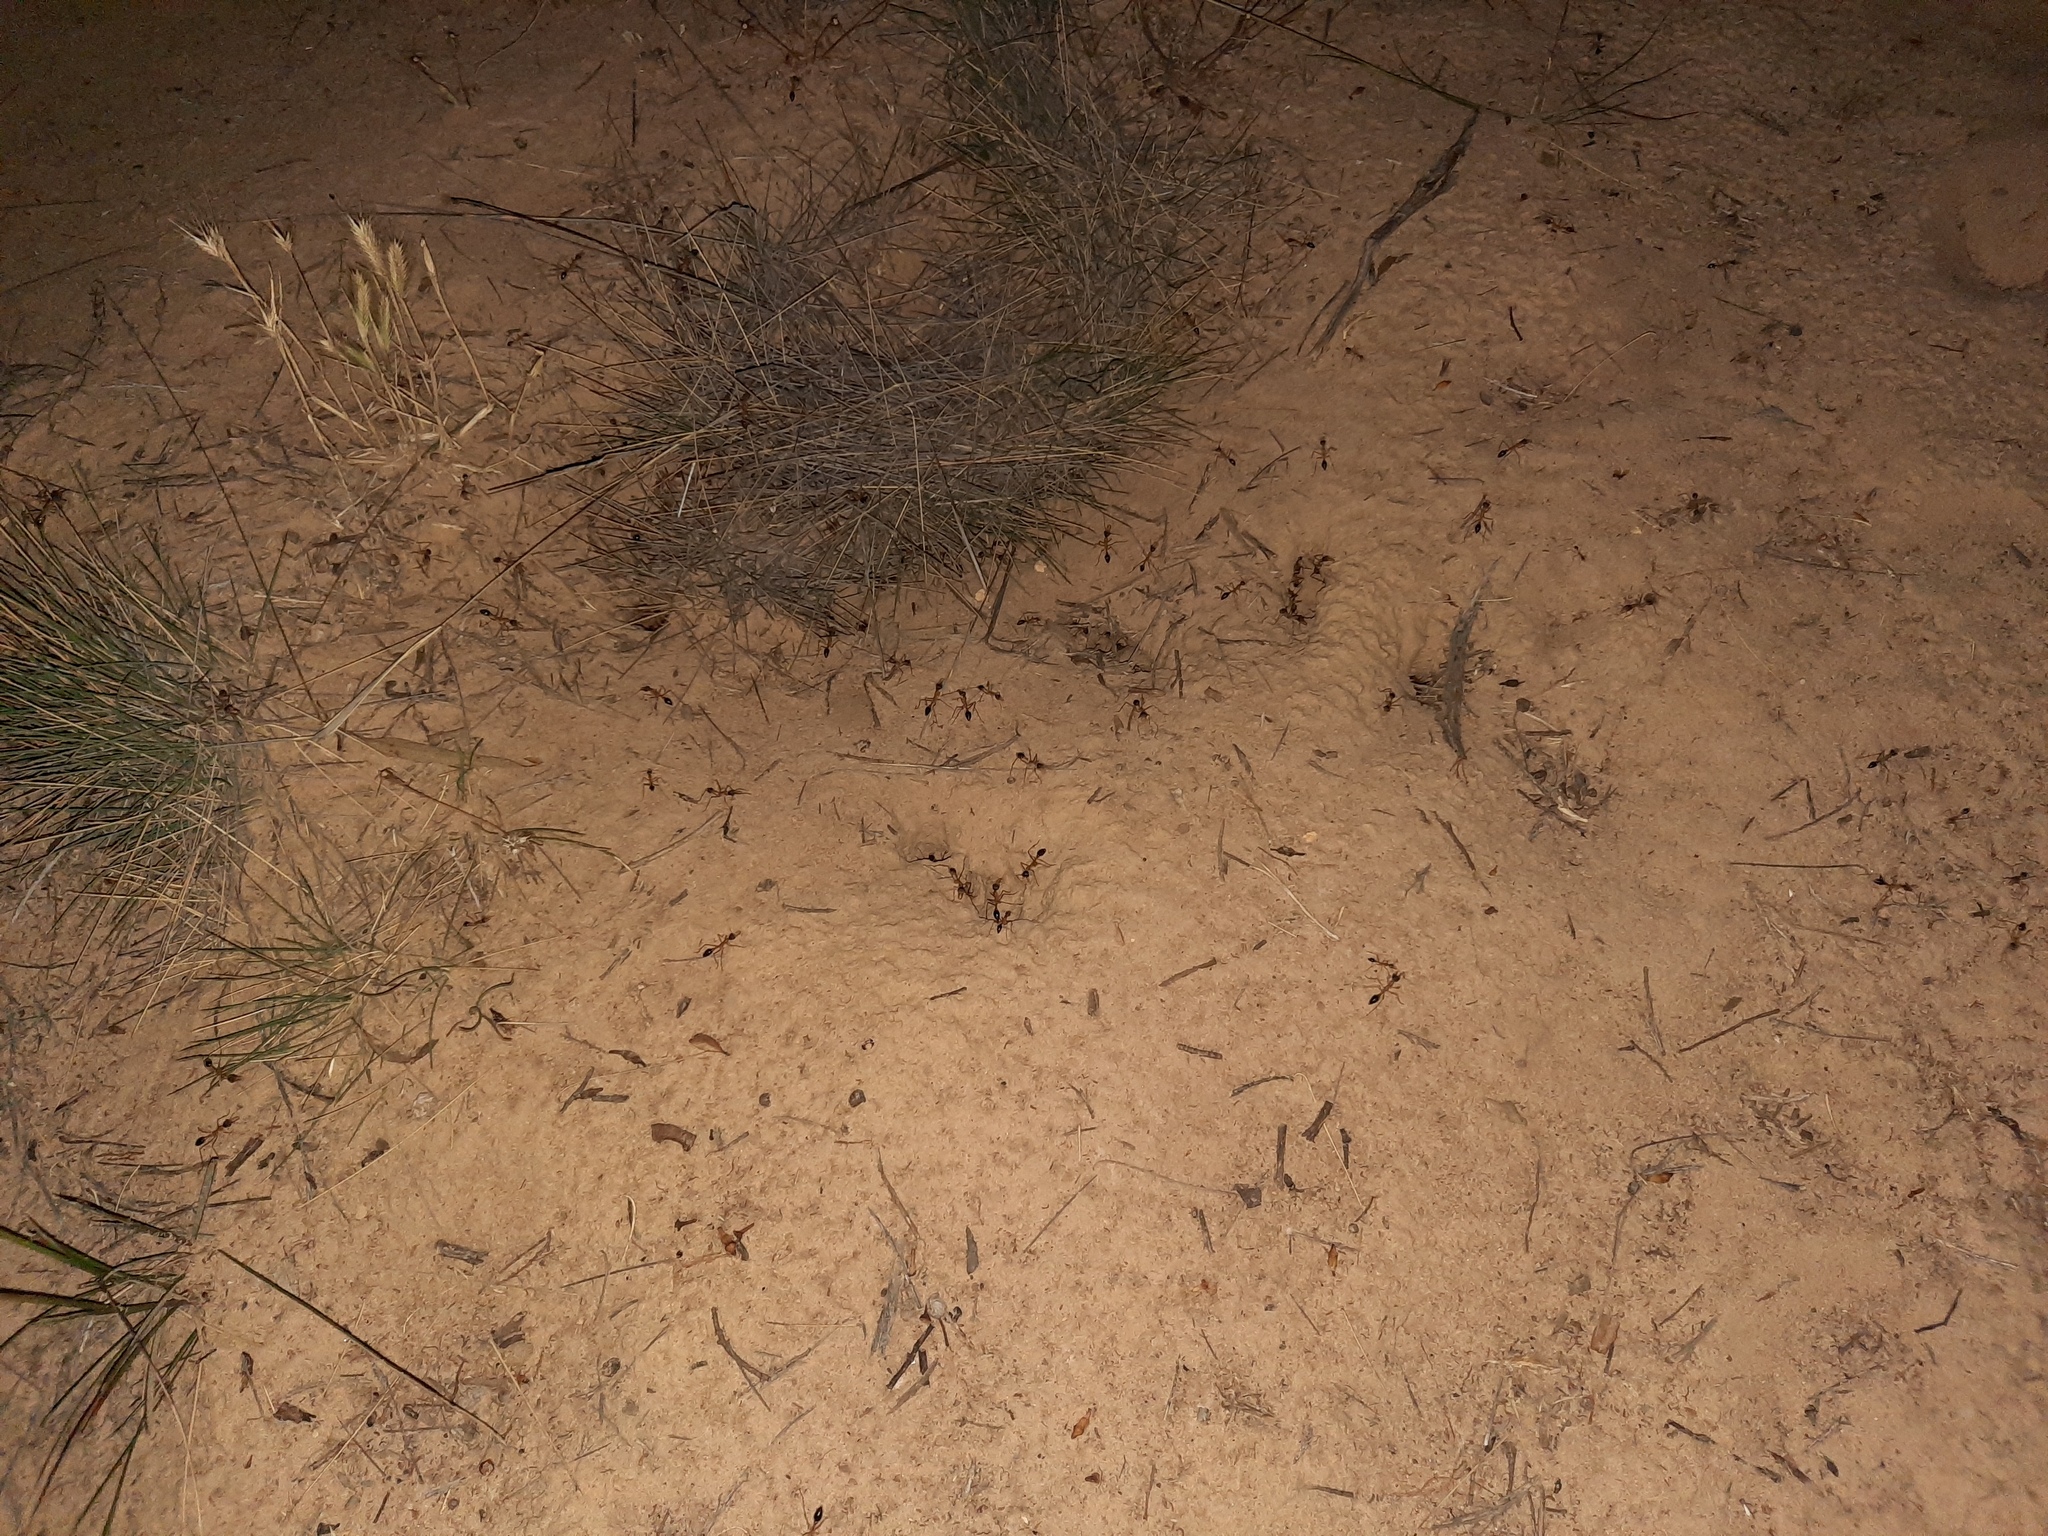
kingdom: Animalia
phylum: Arthropoda
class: Insecta
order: Hymenoptera
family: Formicidae
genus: Myrmecia
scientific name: Myrmecia desertorum
